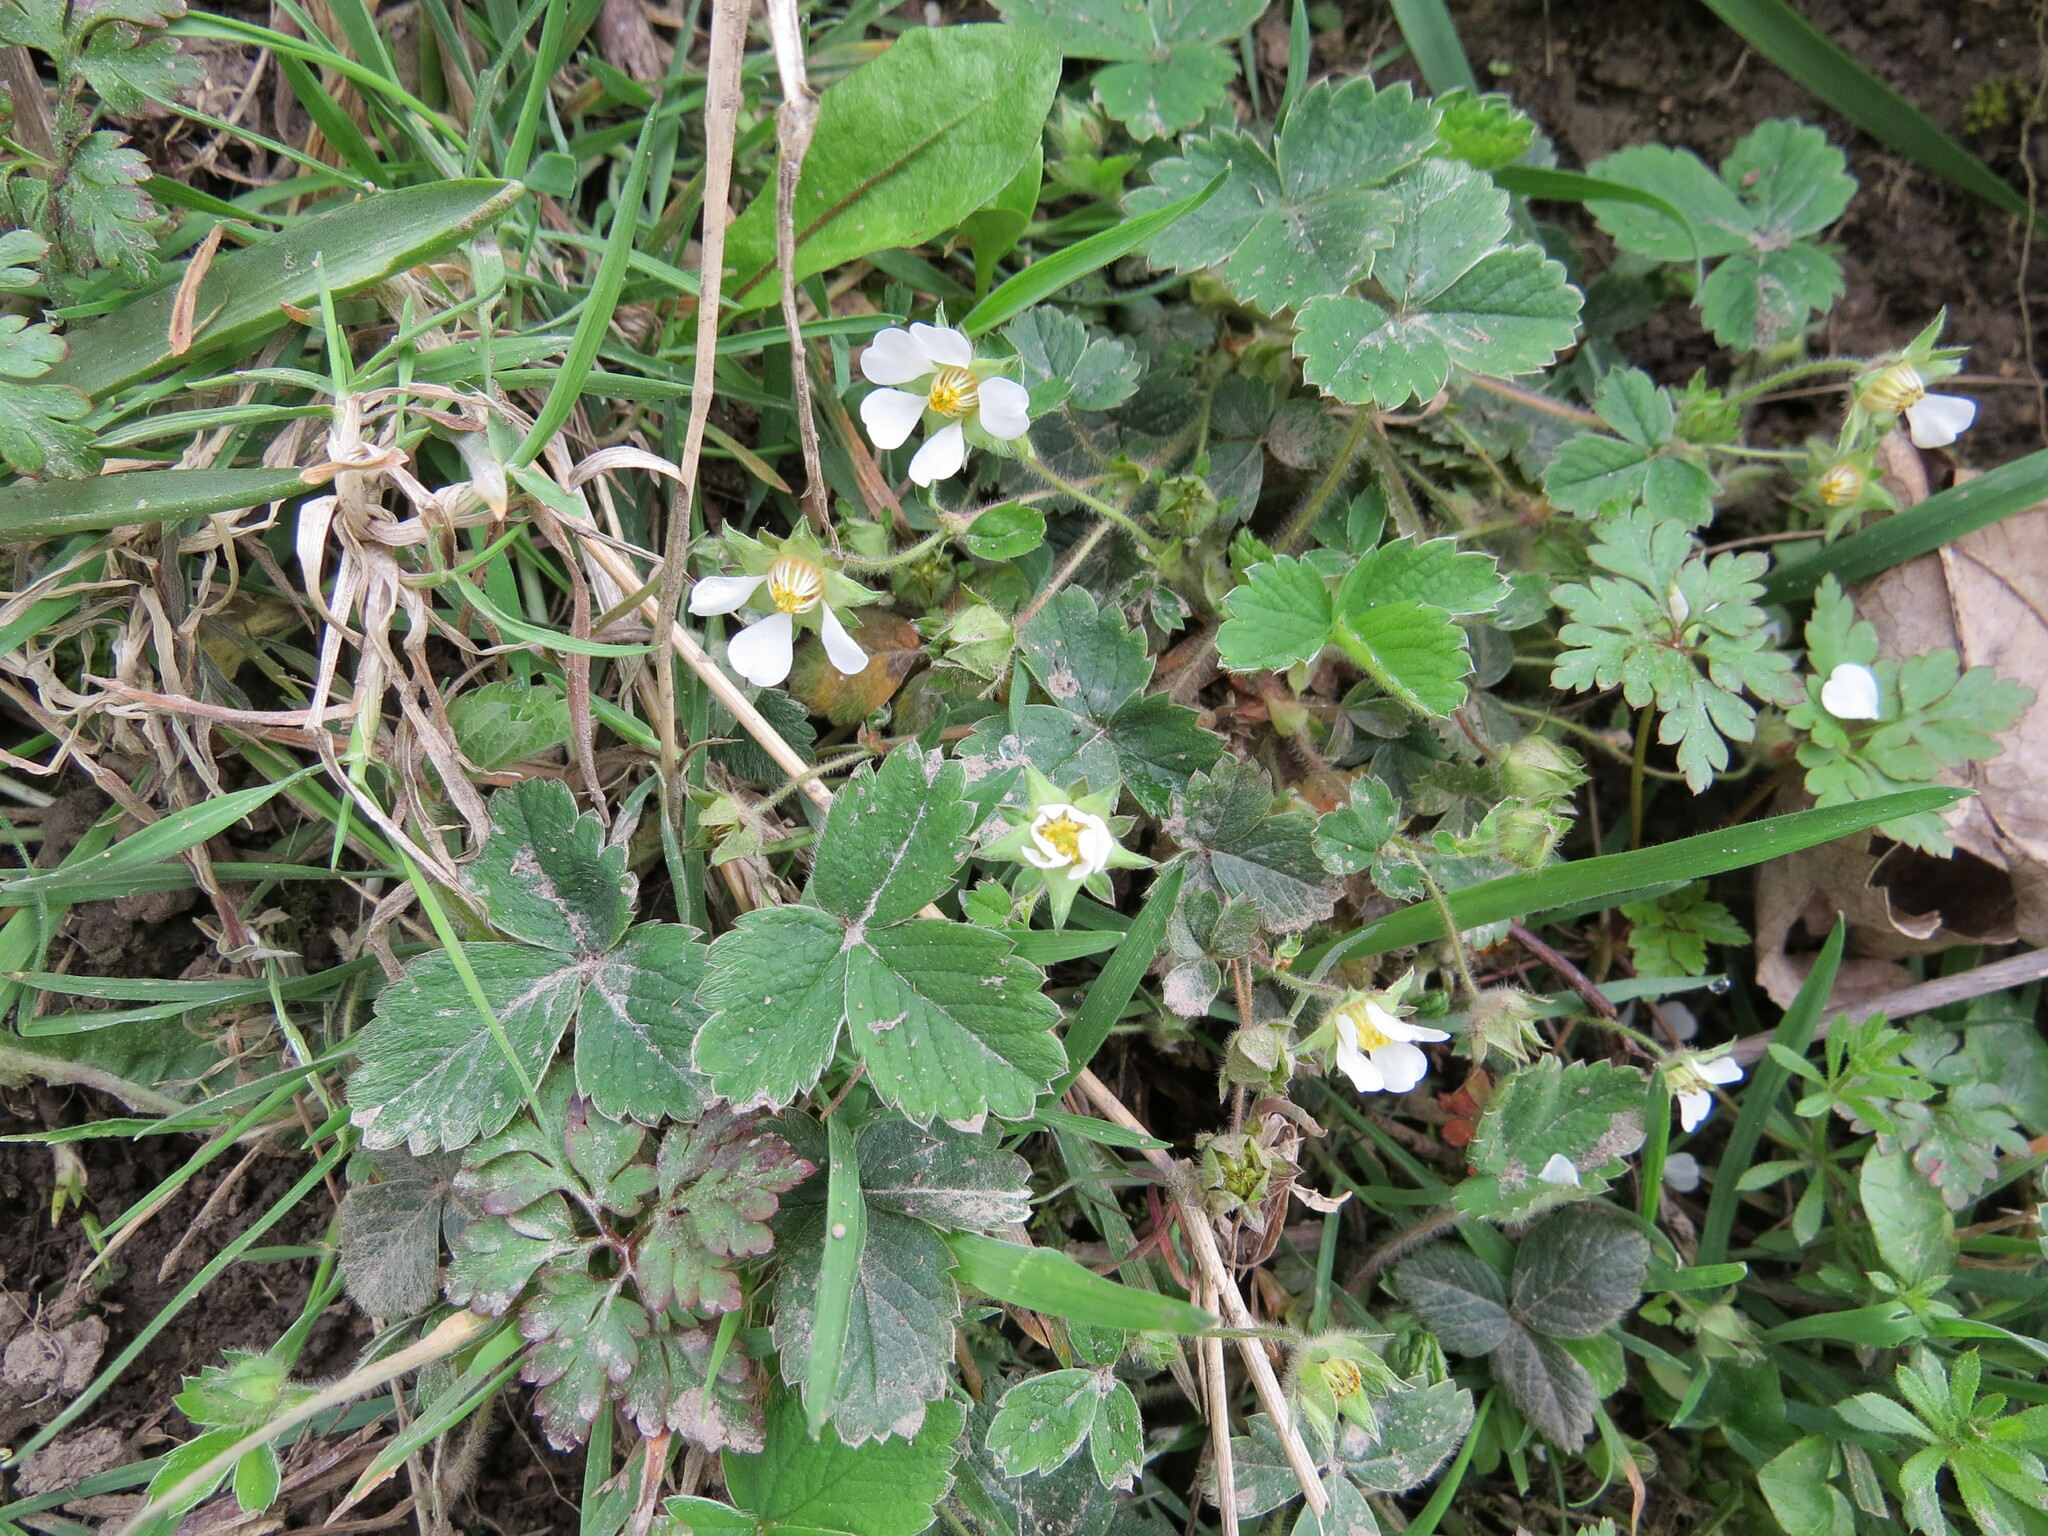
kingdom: Plantae
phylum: Tracheophyta
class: Magnoliopsida
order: Rosales
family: Rosaceae
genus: Potentilla
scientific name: Potentilla sterilis
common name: Barren strawberry
